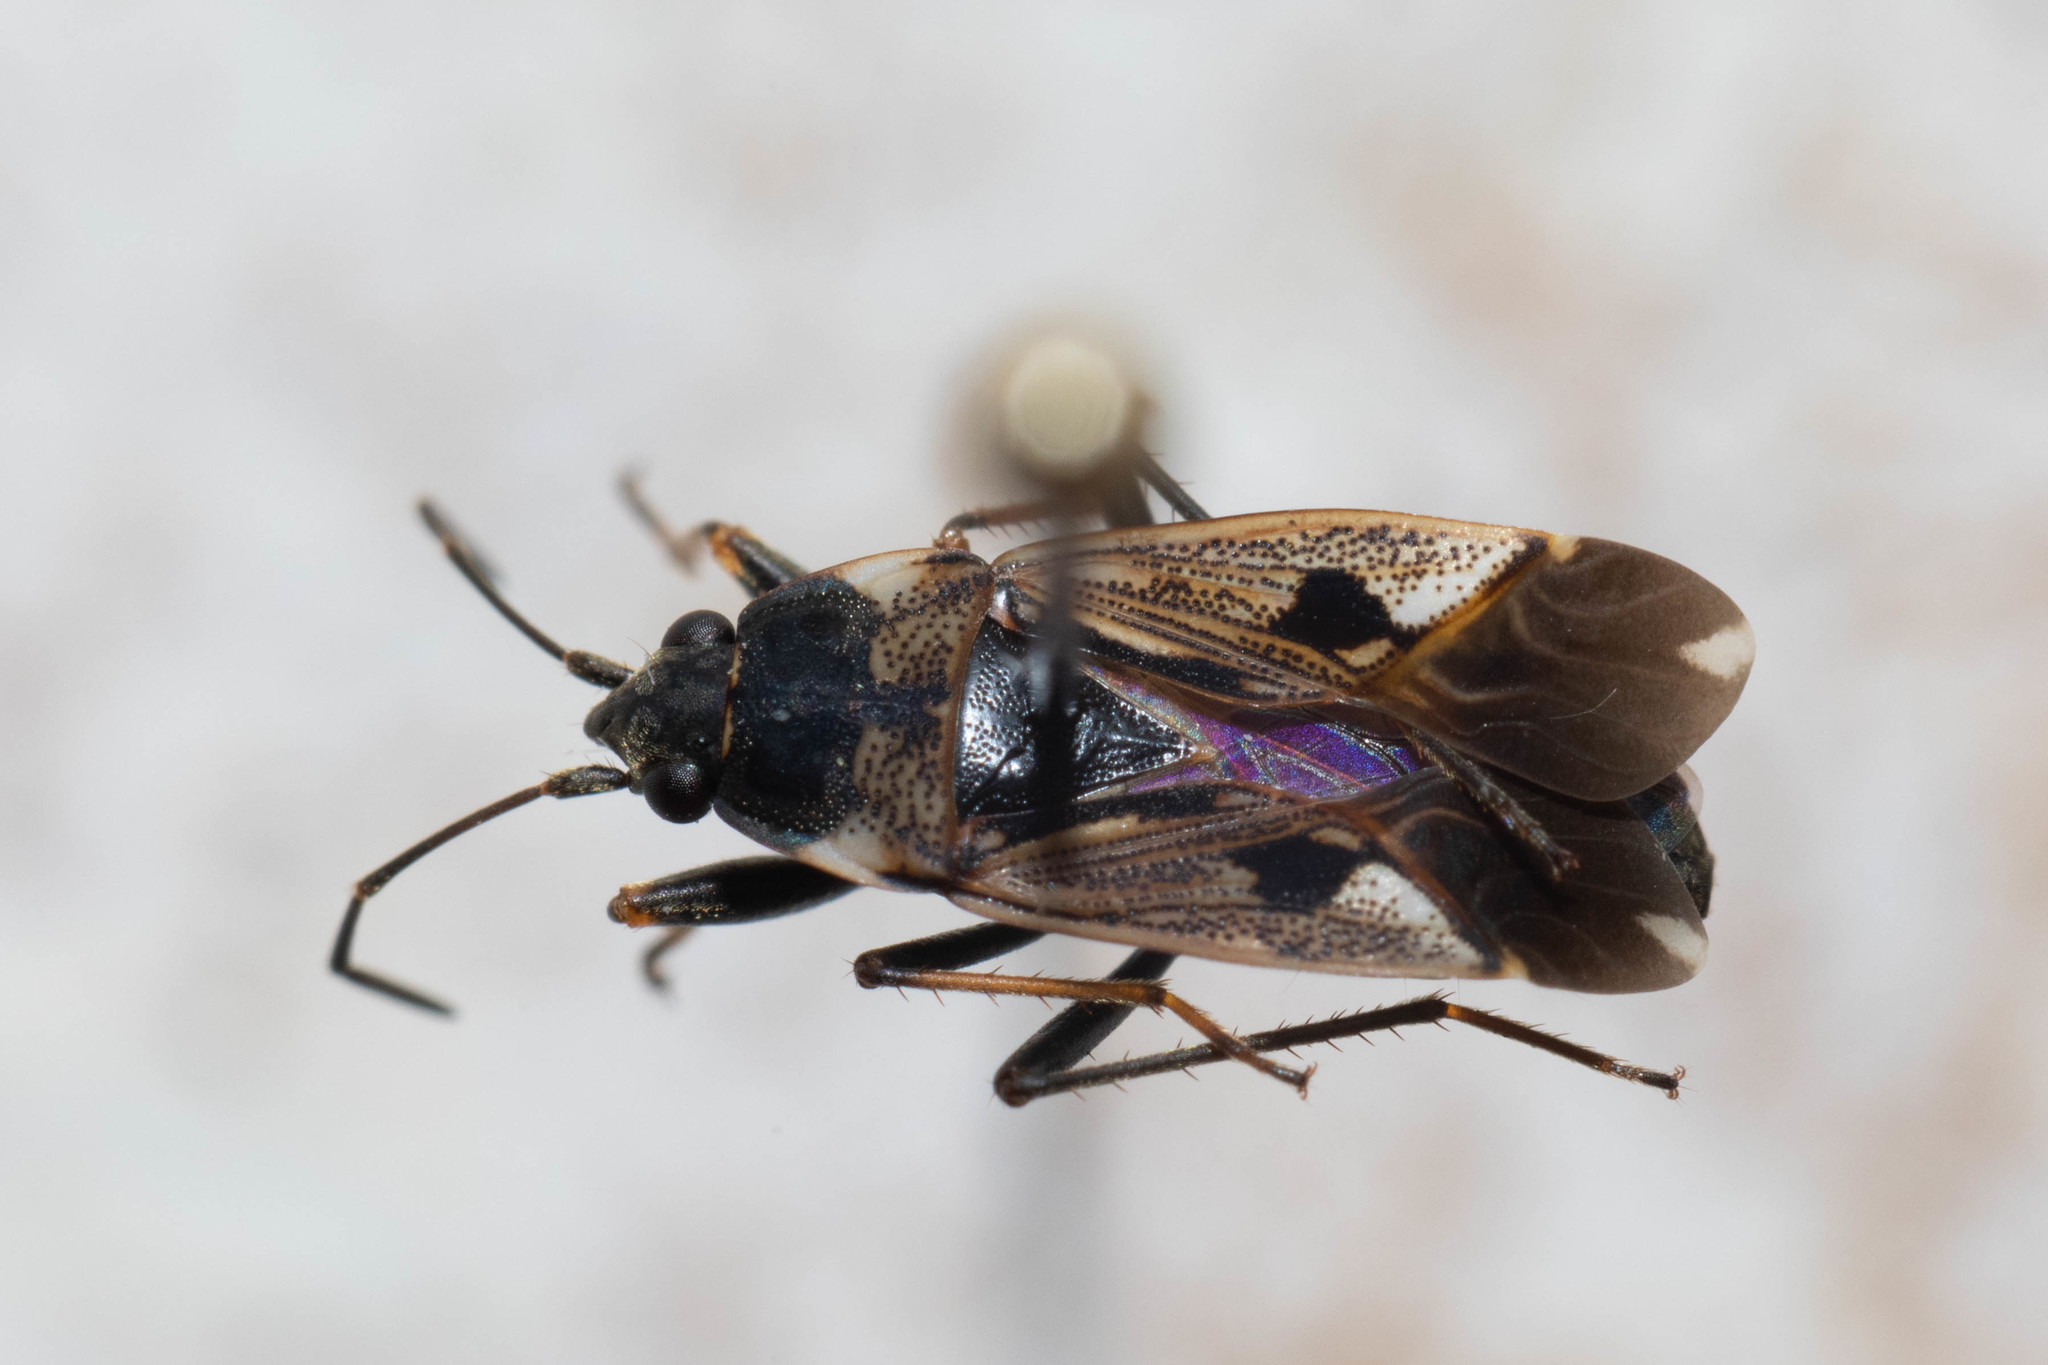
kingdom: Animalia
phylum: Arthropoda
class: Insecta
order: Hemiptera
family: Rhyparochromidae
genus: Rhyparochromus
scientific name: Rhyparochromus vulgaris
